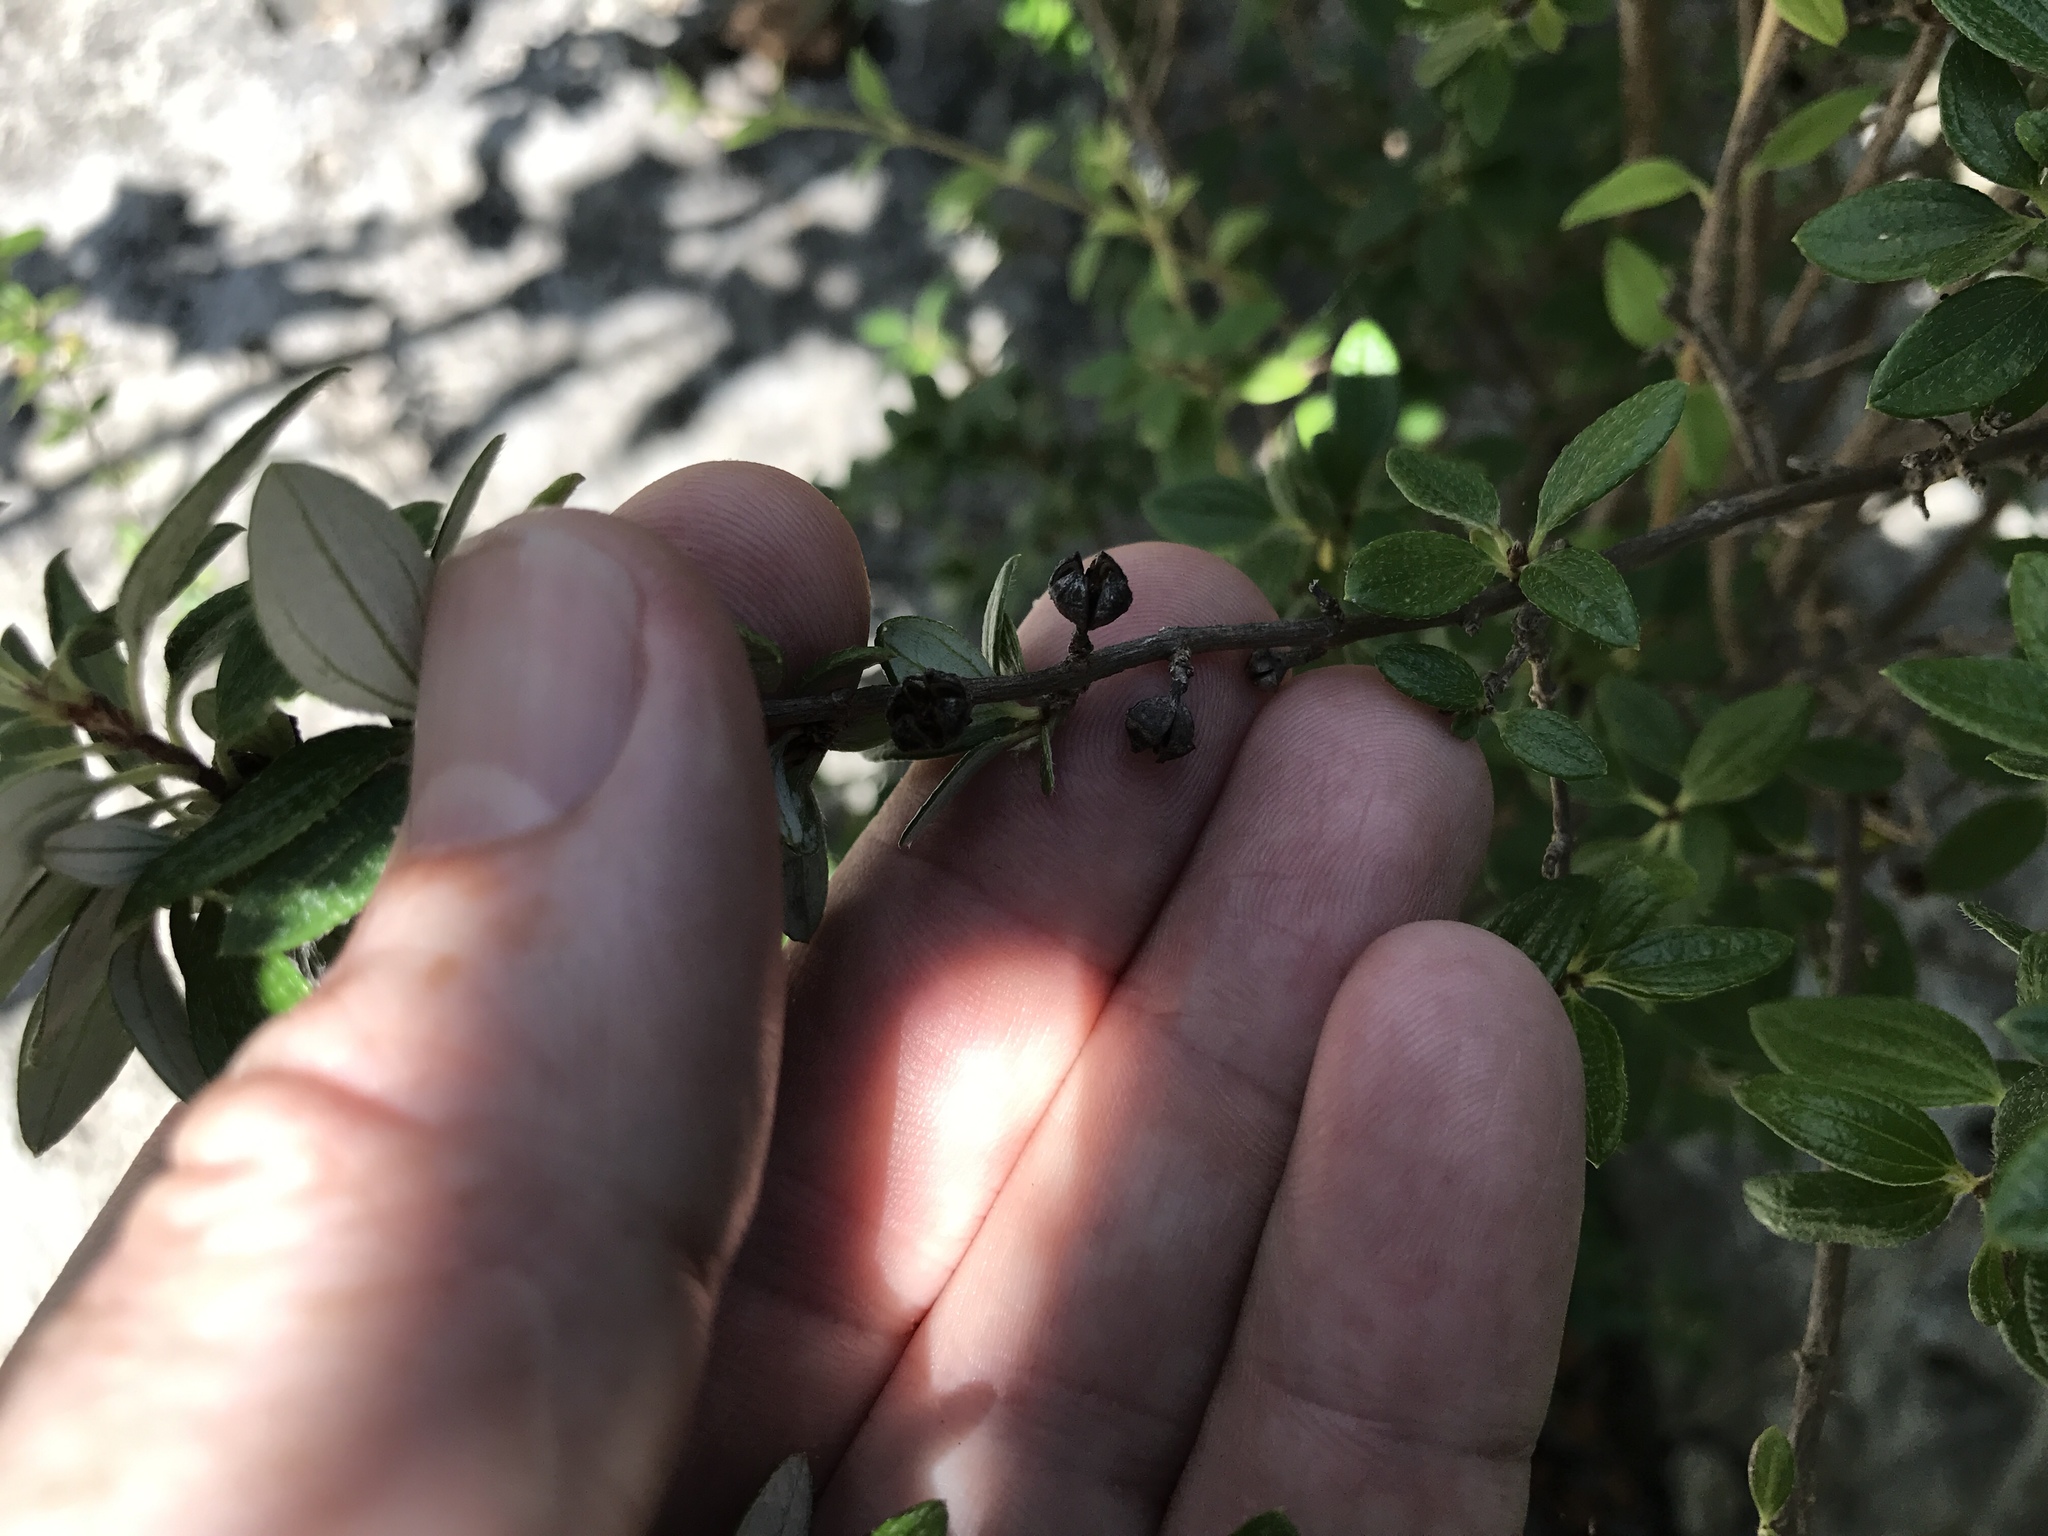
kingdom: Plantae
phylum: Tracheophyta
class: Magnoliopsida
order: Cornales
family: Hydrangeaceae
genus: Philadelphus
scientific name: Philadelphus texensis
